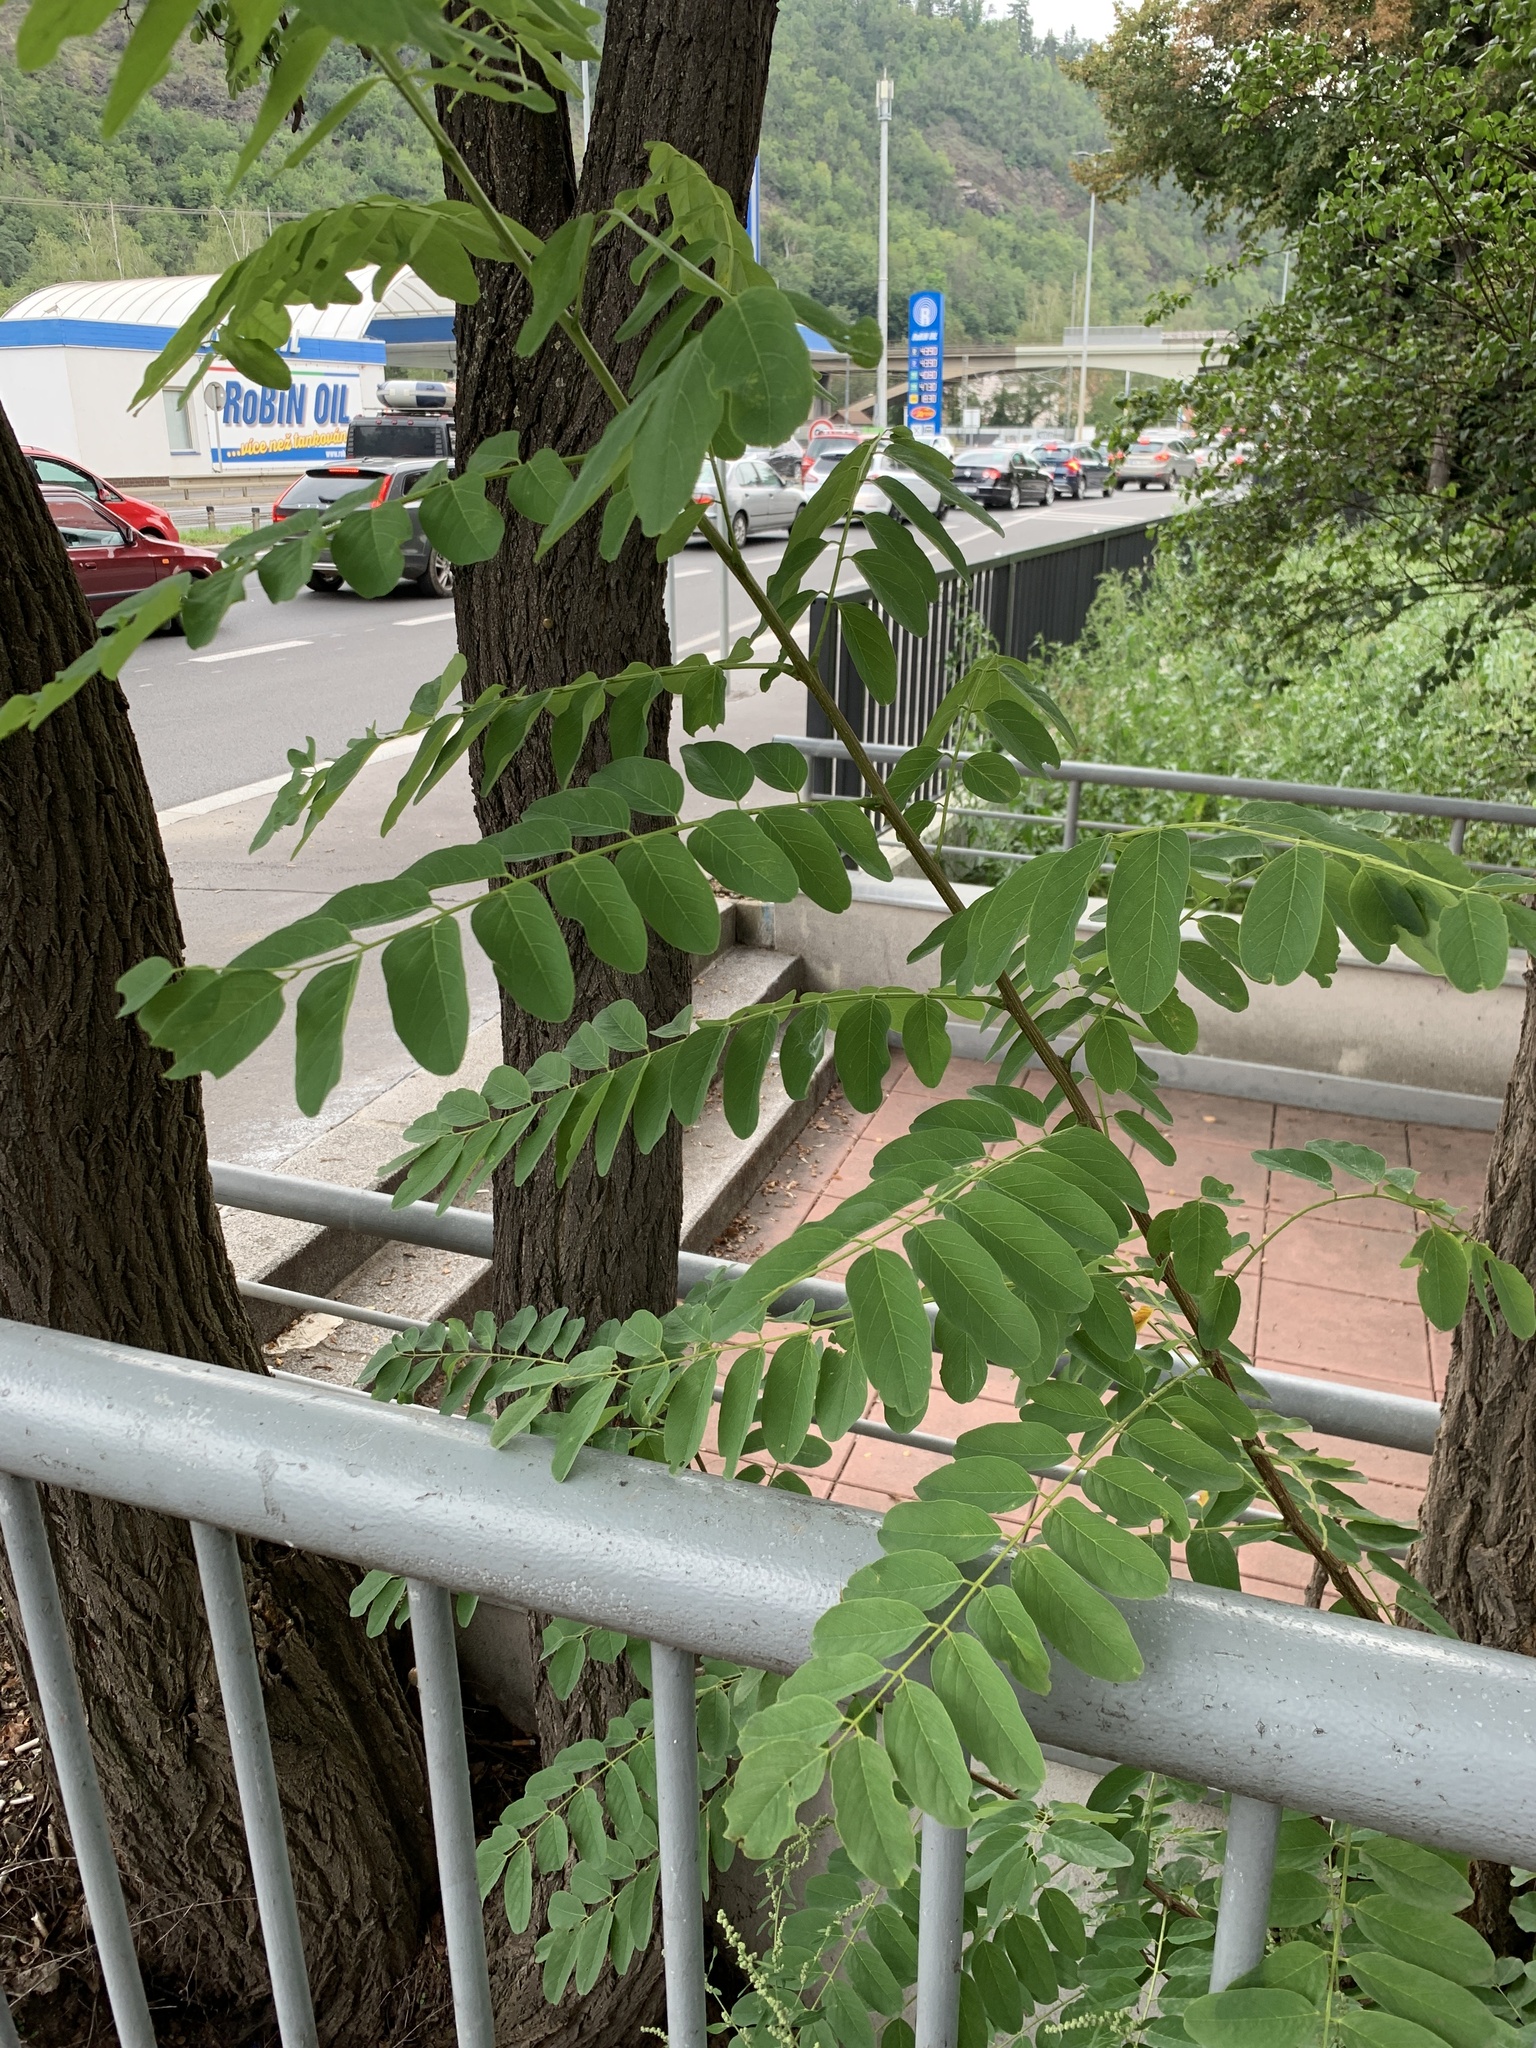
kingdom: Plantae
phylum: Tracheophyta
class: Magnoliopsida
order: Fabales
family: Fabaceae
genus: Robinia
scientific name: Robinia pseudoacacia
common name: Black locust
